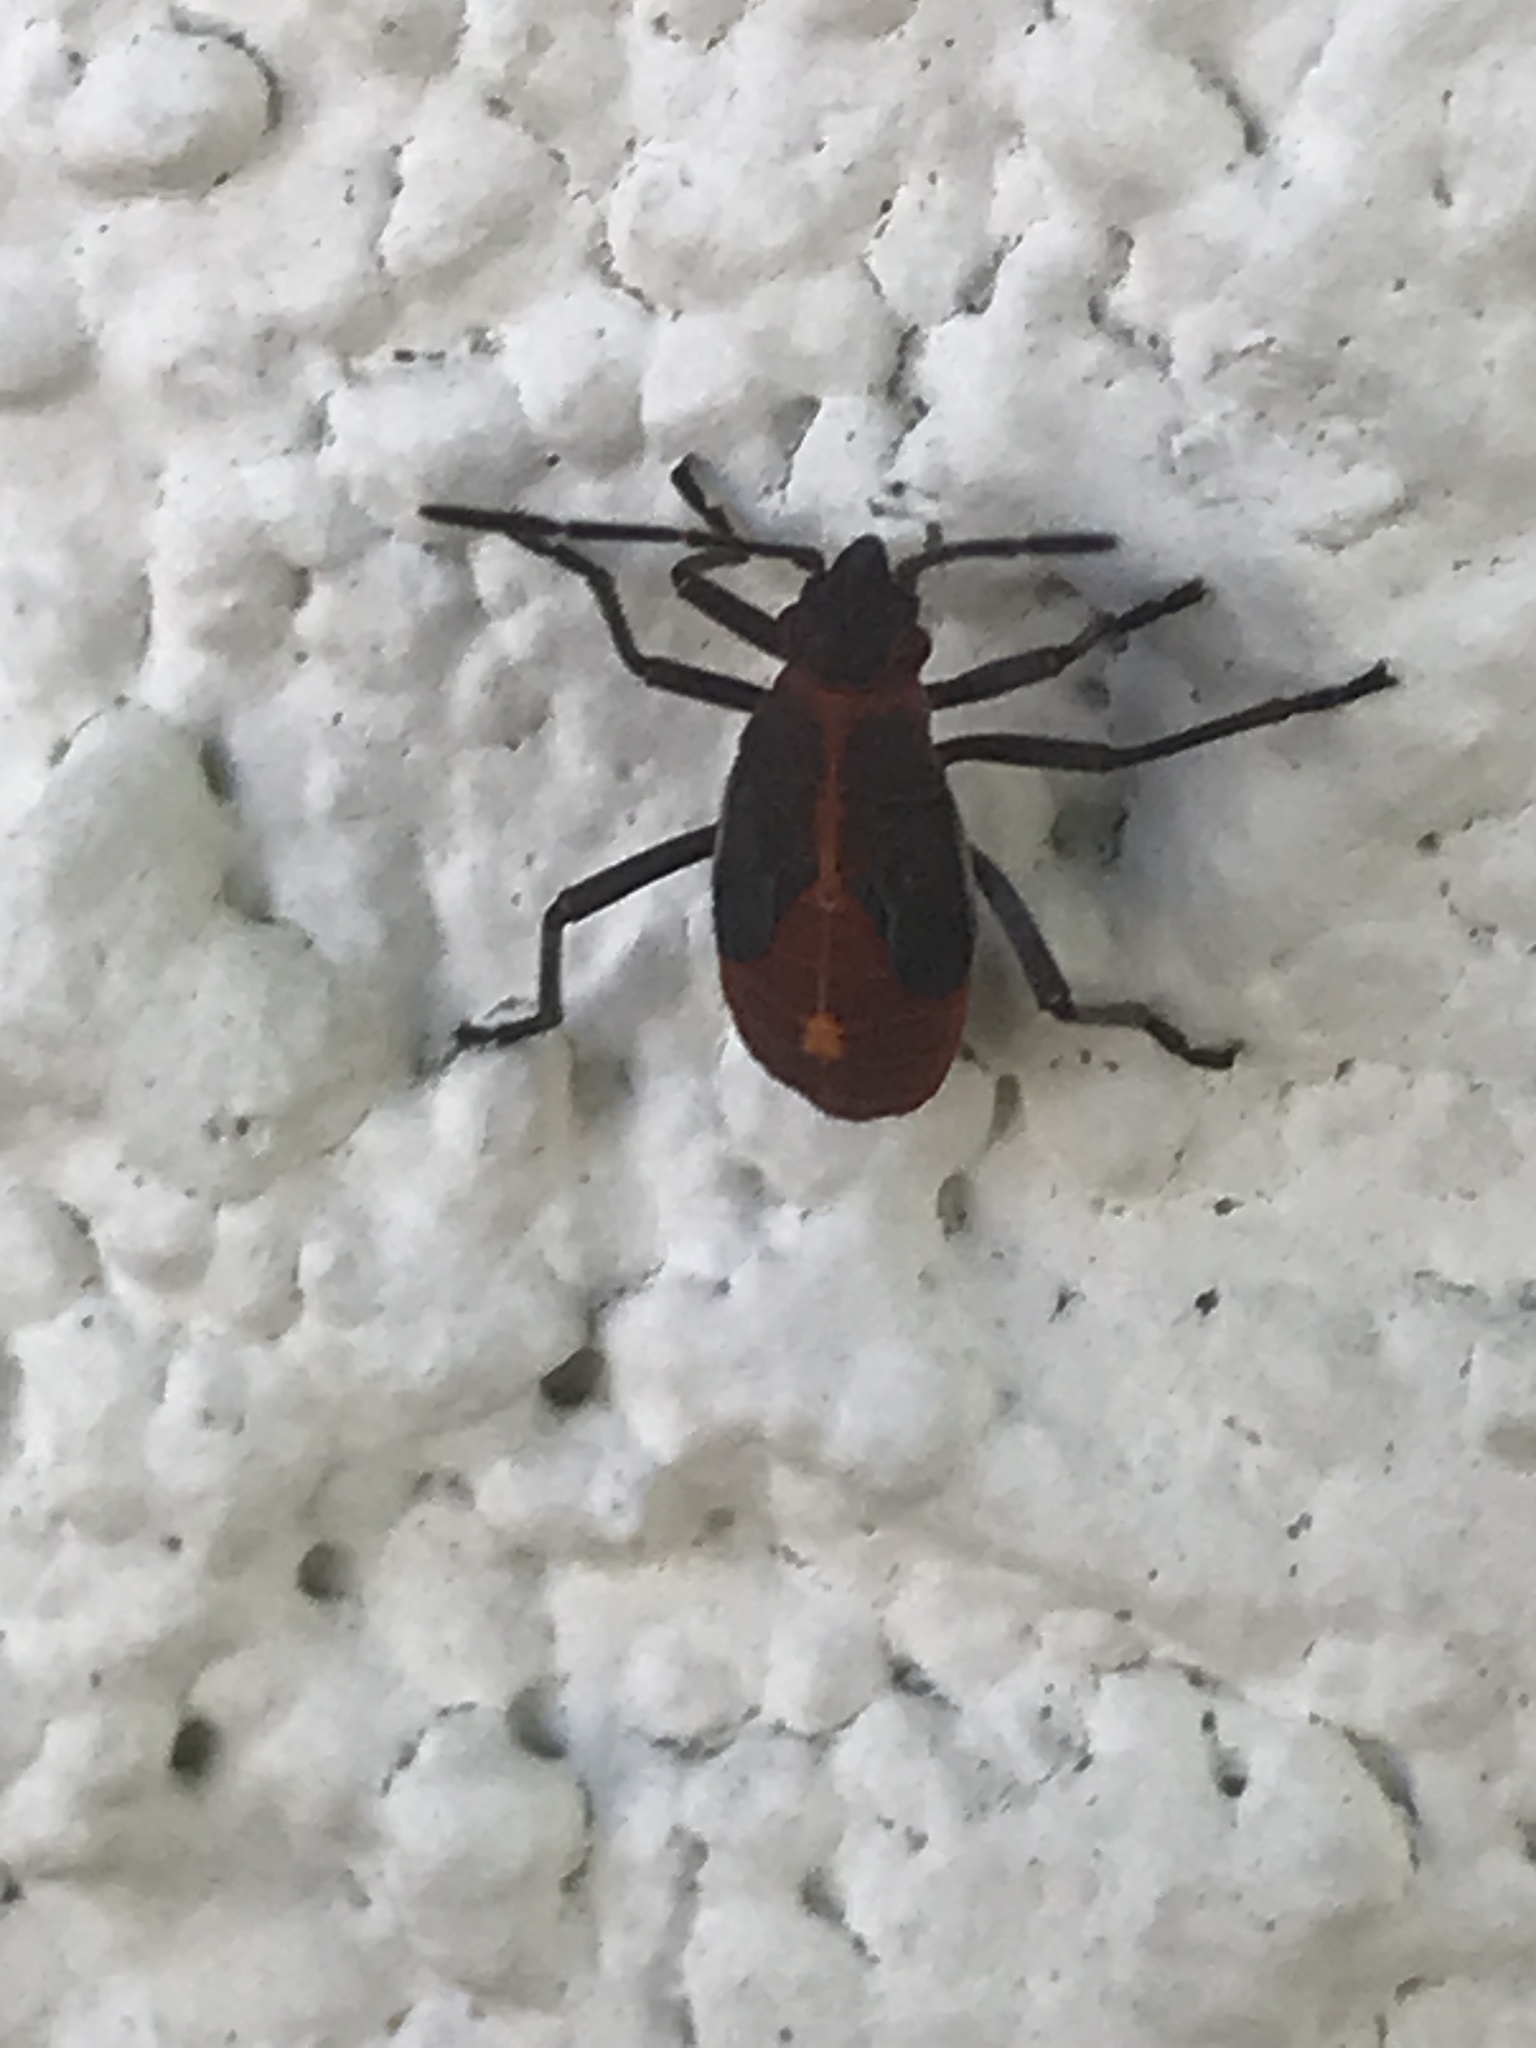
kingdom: Animalia
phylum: Arthropoda
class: Insecta
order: Hemiptera
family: Rhopalidae
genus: Boisea
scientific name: Boisea trivittata
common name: Boxelder bug
